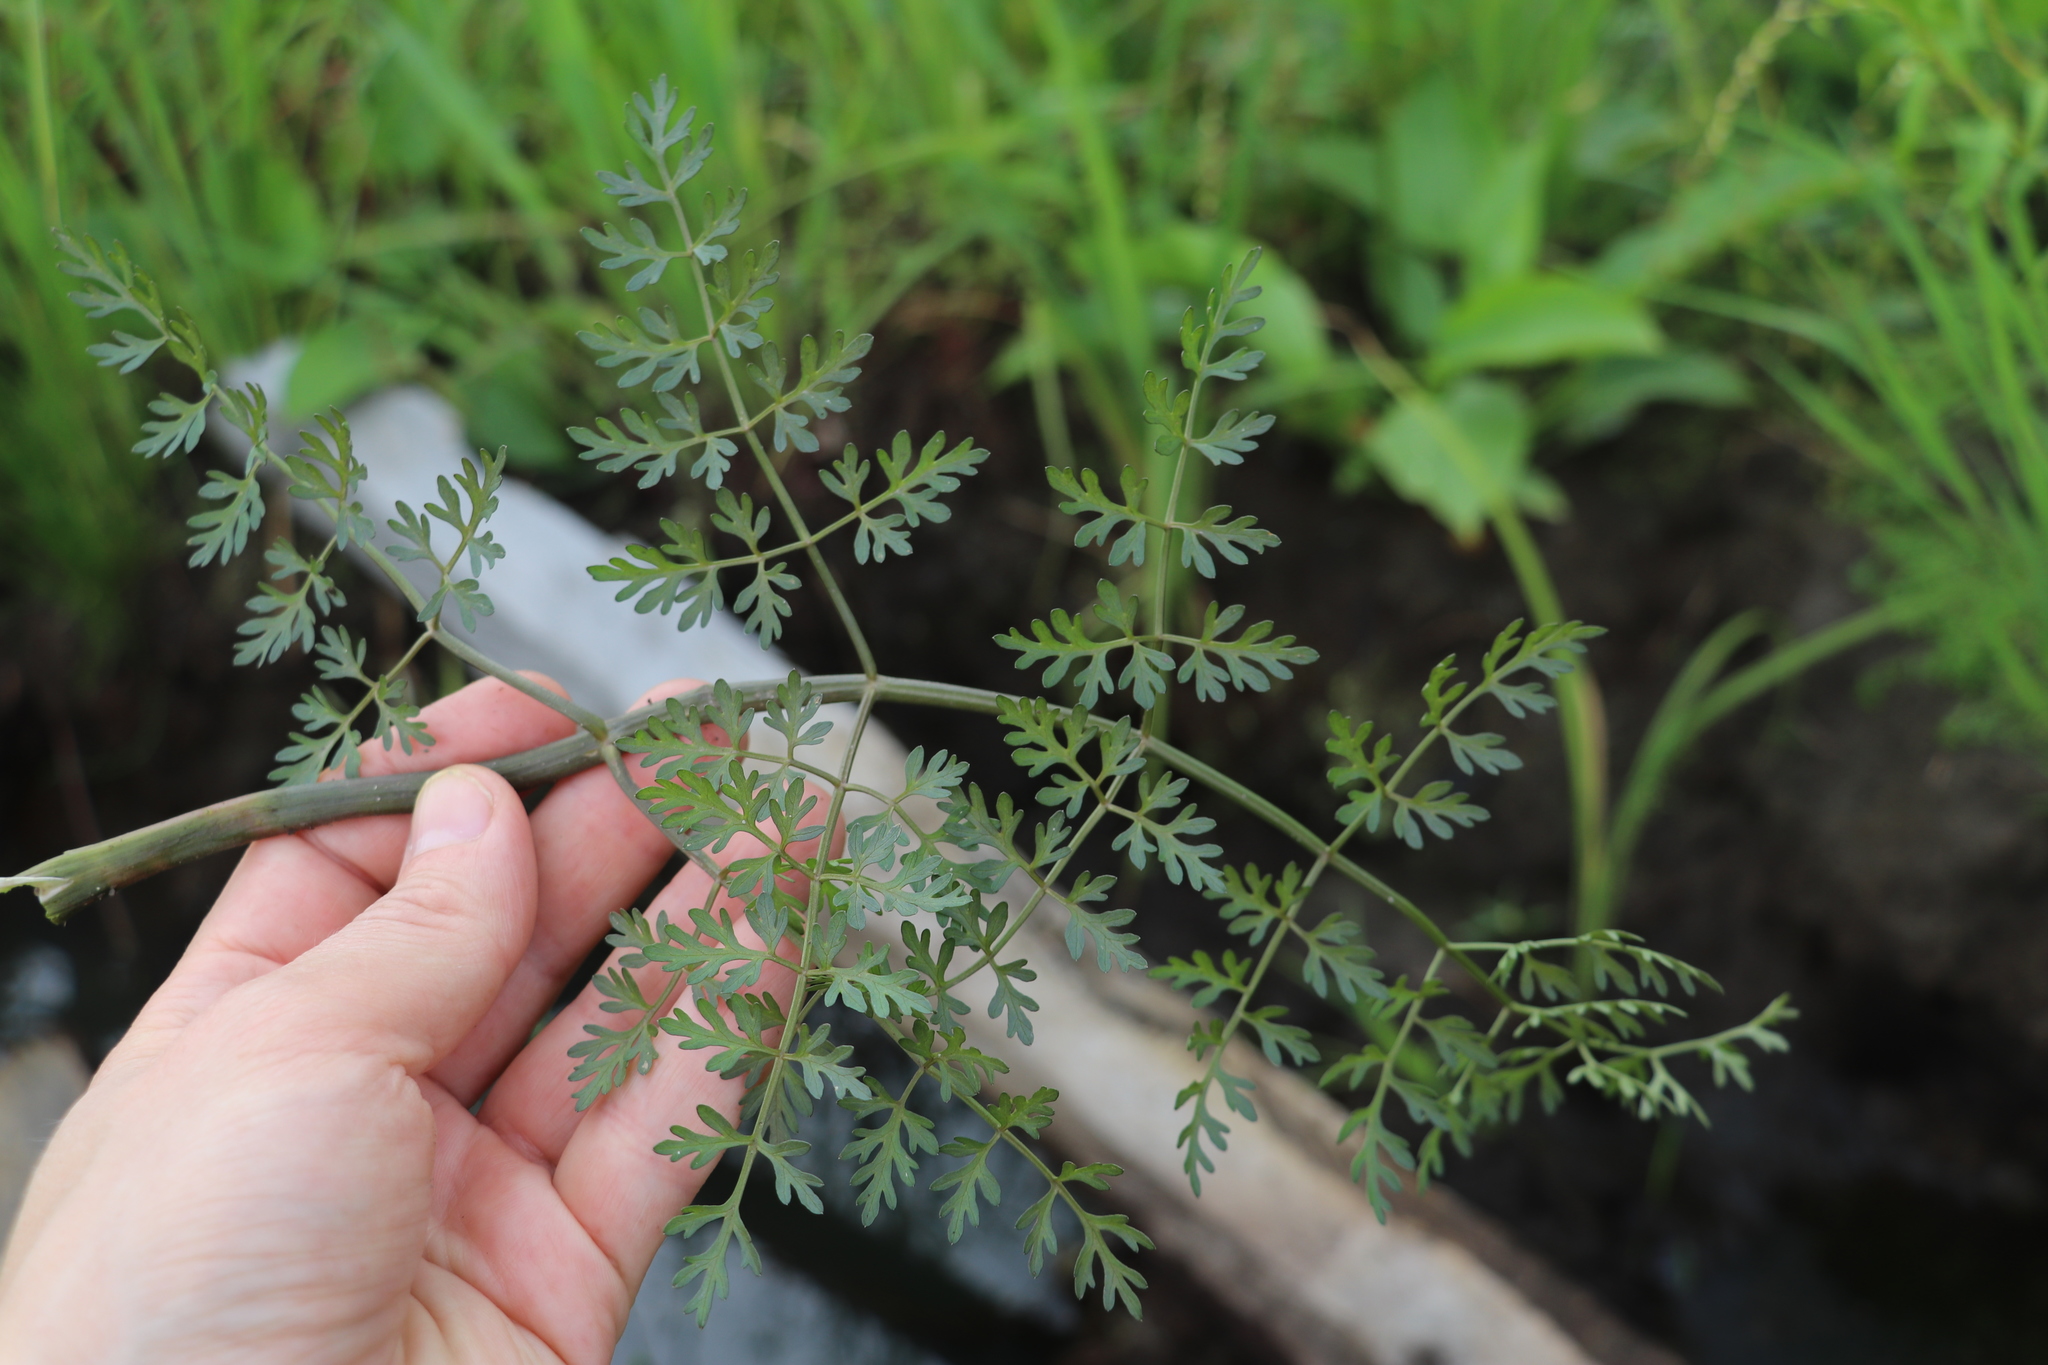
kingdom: Plantae
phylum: Tracheophyta
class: Magnoliopsida
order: Apiales
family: Apiaceae
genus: Oenanthe
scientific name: Oenanthe aquatica
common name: Fine-leaved water-dropwort
